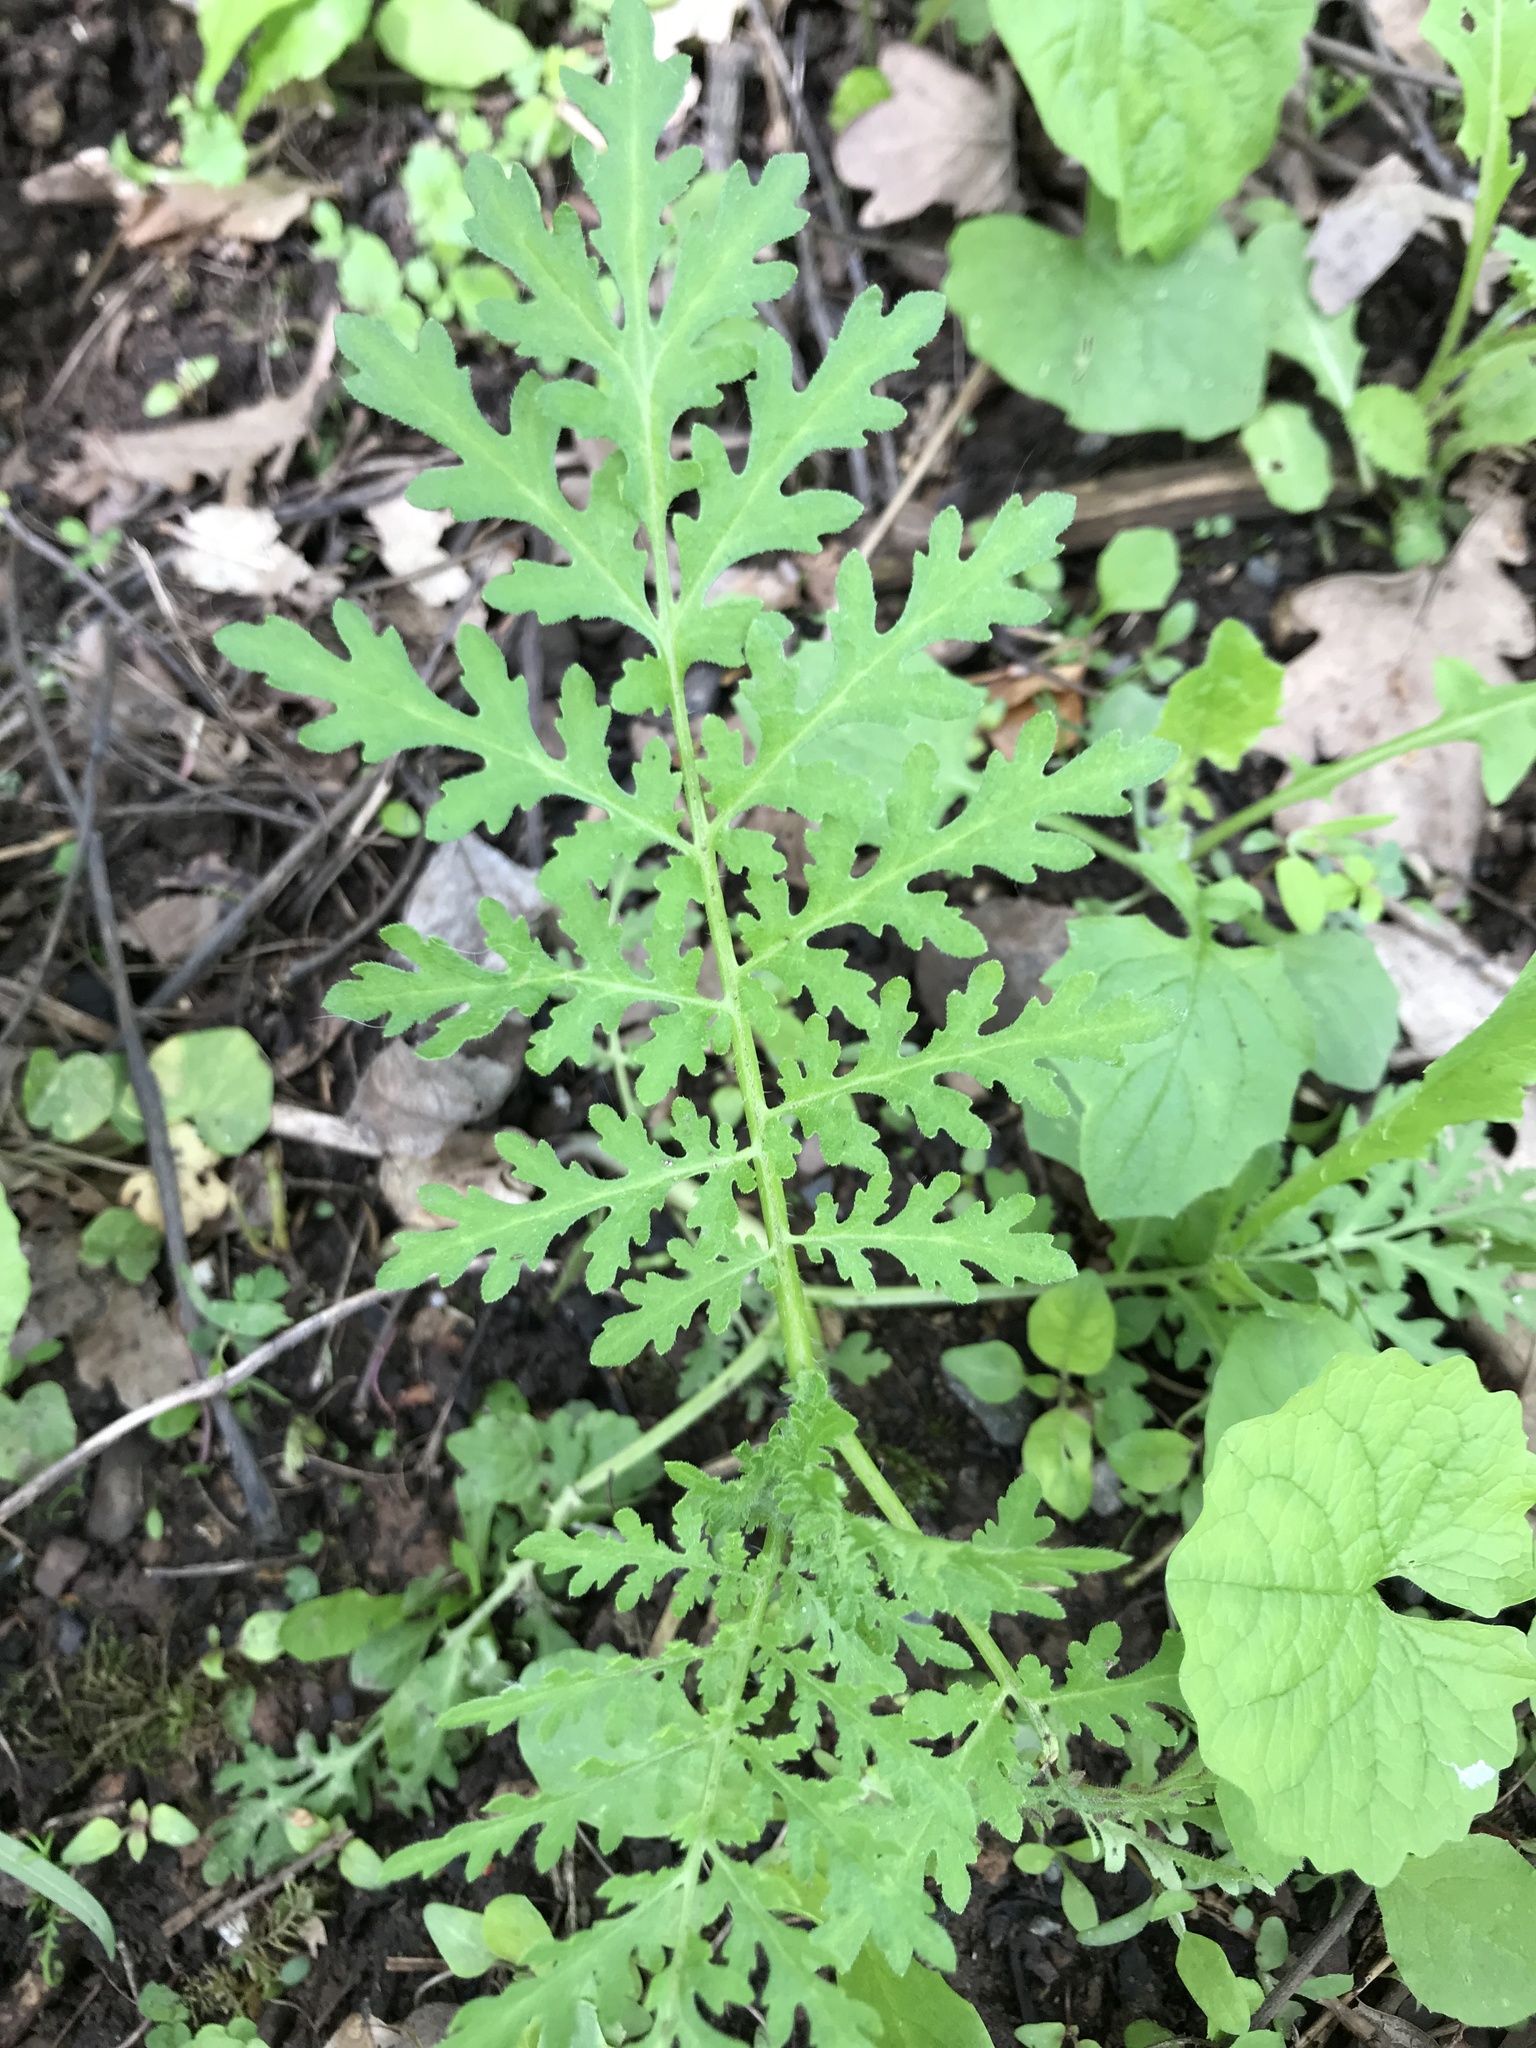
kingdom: Plantae
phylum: Tracheophyta
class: Magnoliopsida
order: Boraginales
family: Hydrophyllaceae
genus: Phacelia
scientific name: Phacelia tanacetifolia
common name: Phacelia
